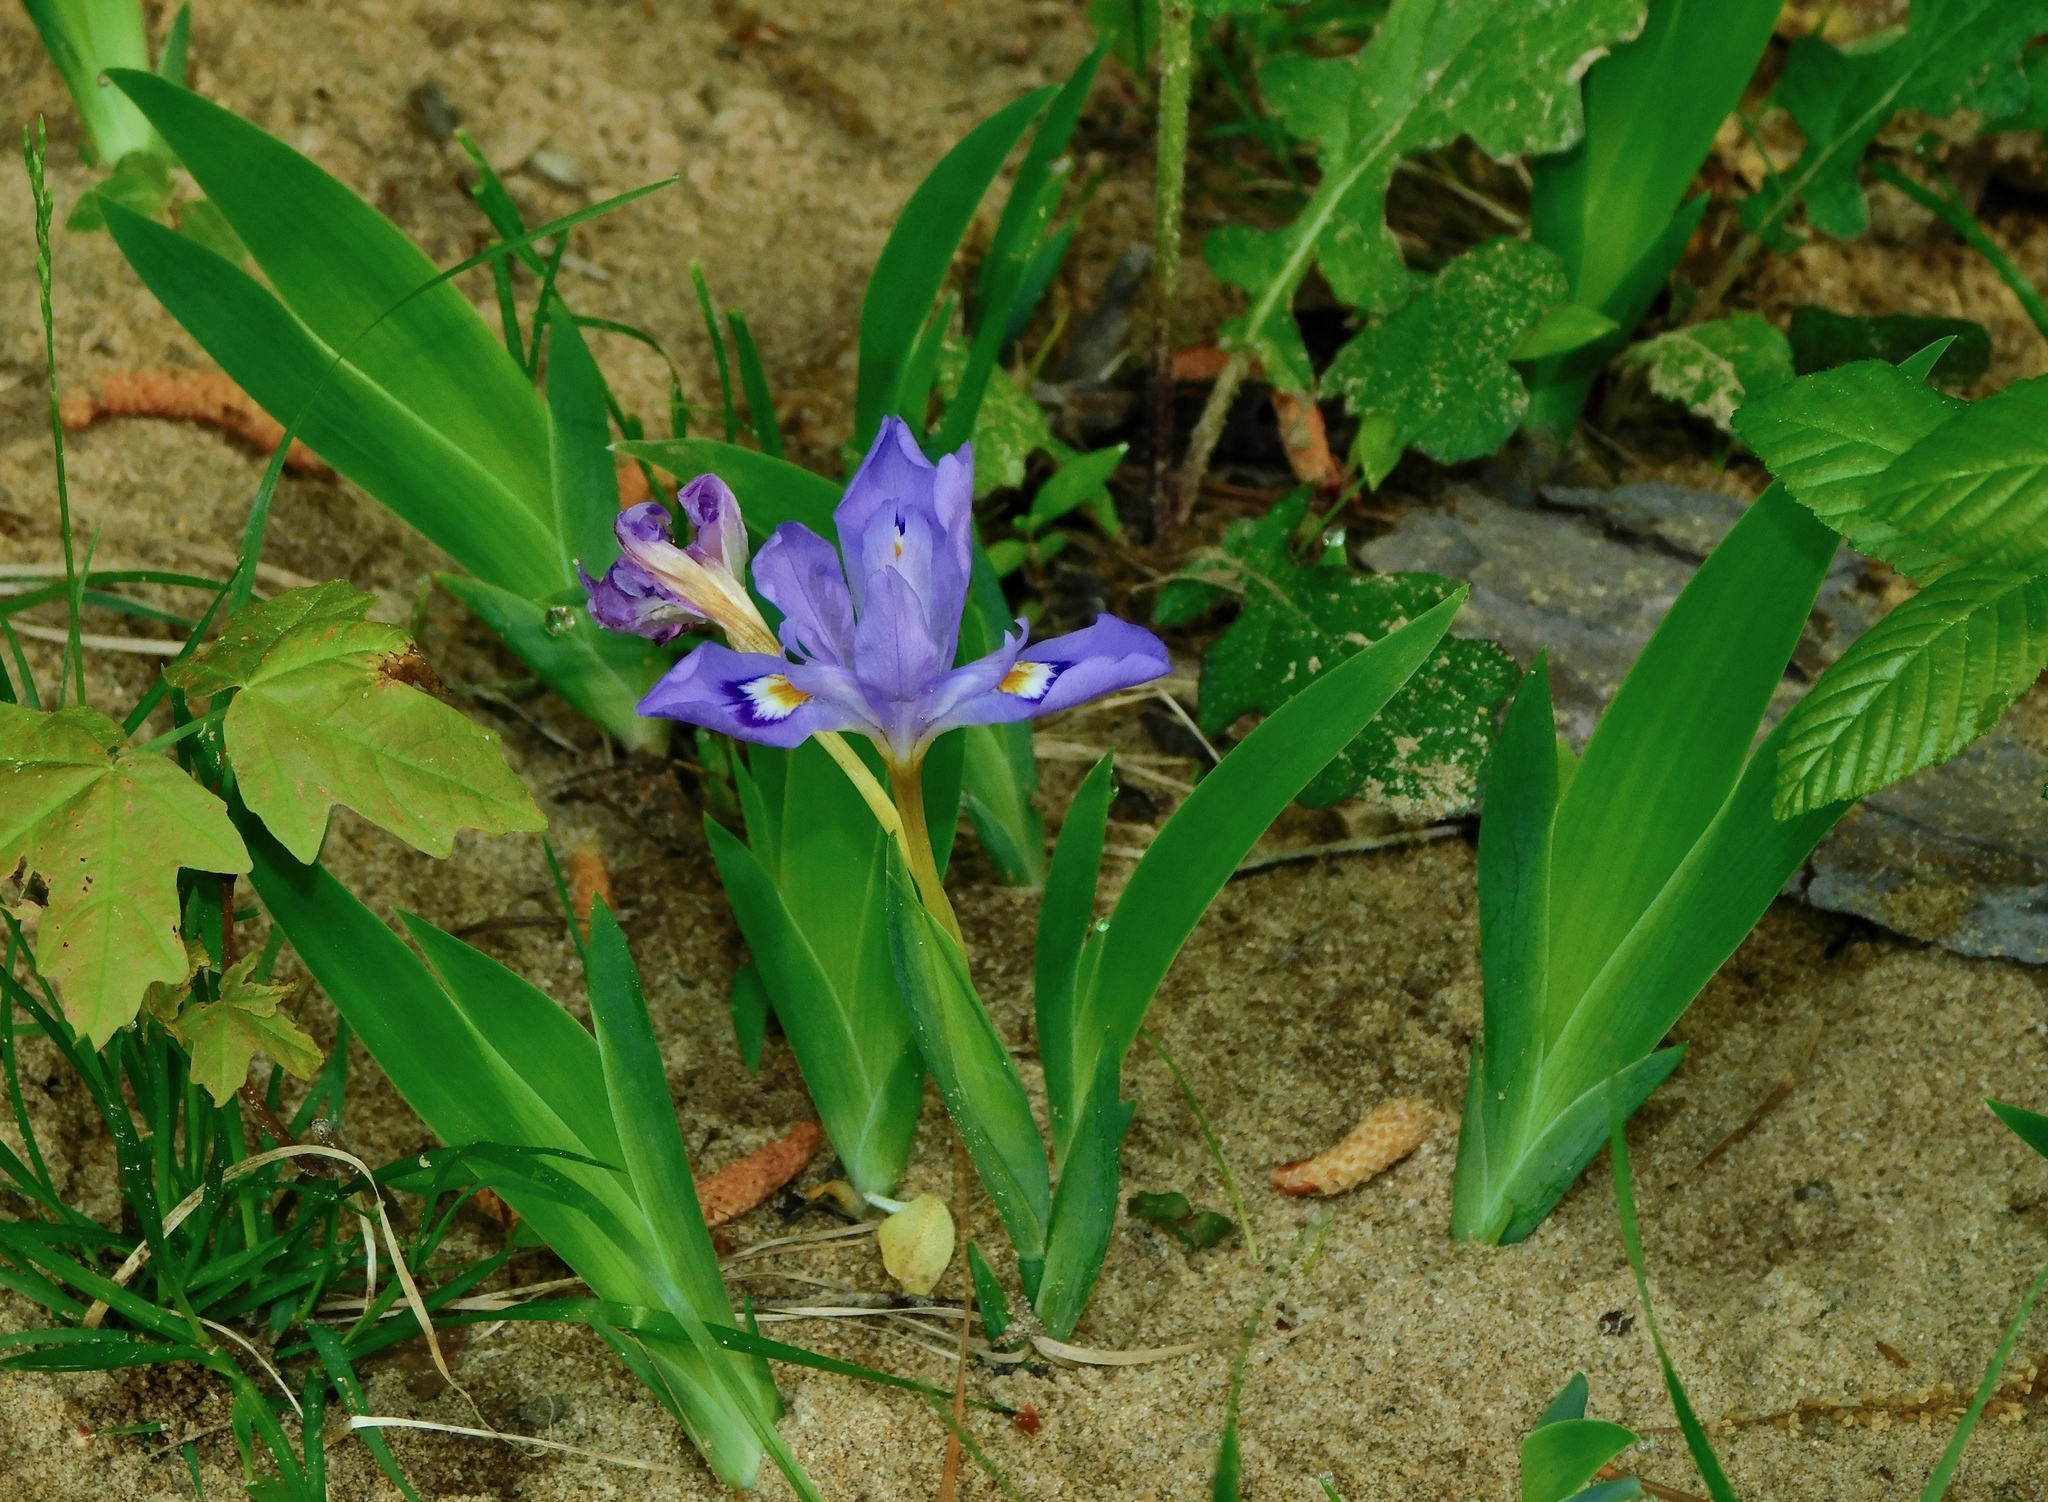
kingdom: Plantae
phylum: Tracheophyta
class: Liliopsida
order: Asparagales
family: Iridaceae
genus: Iris
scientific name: Iris cristata
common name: Crested iris
